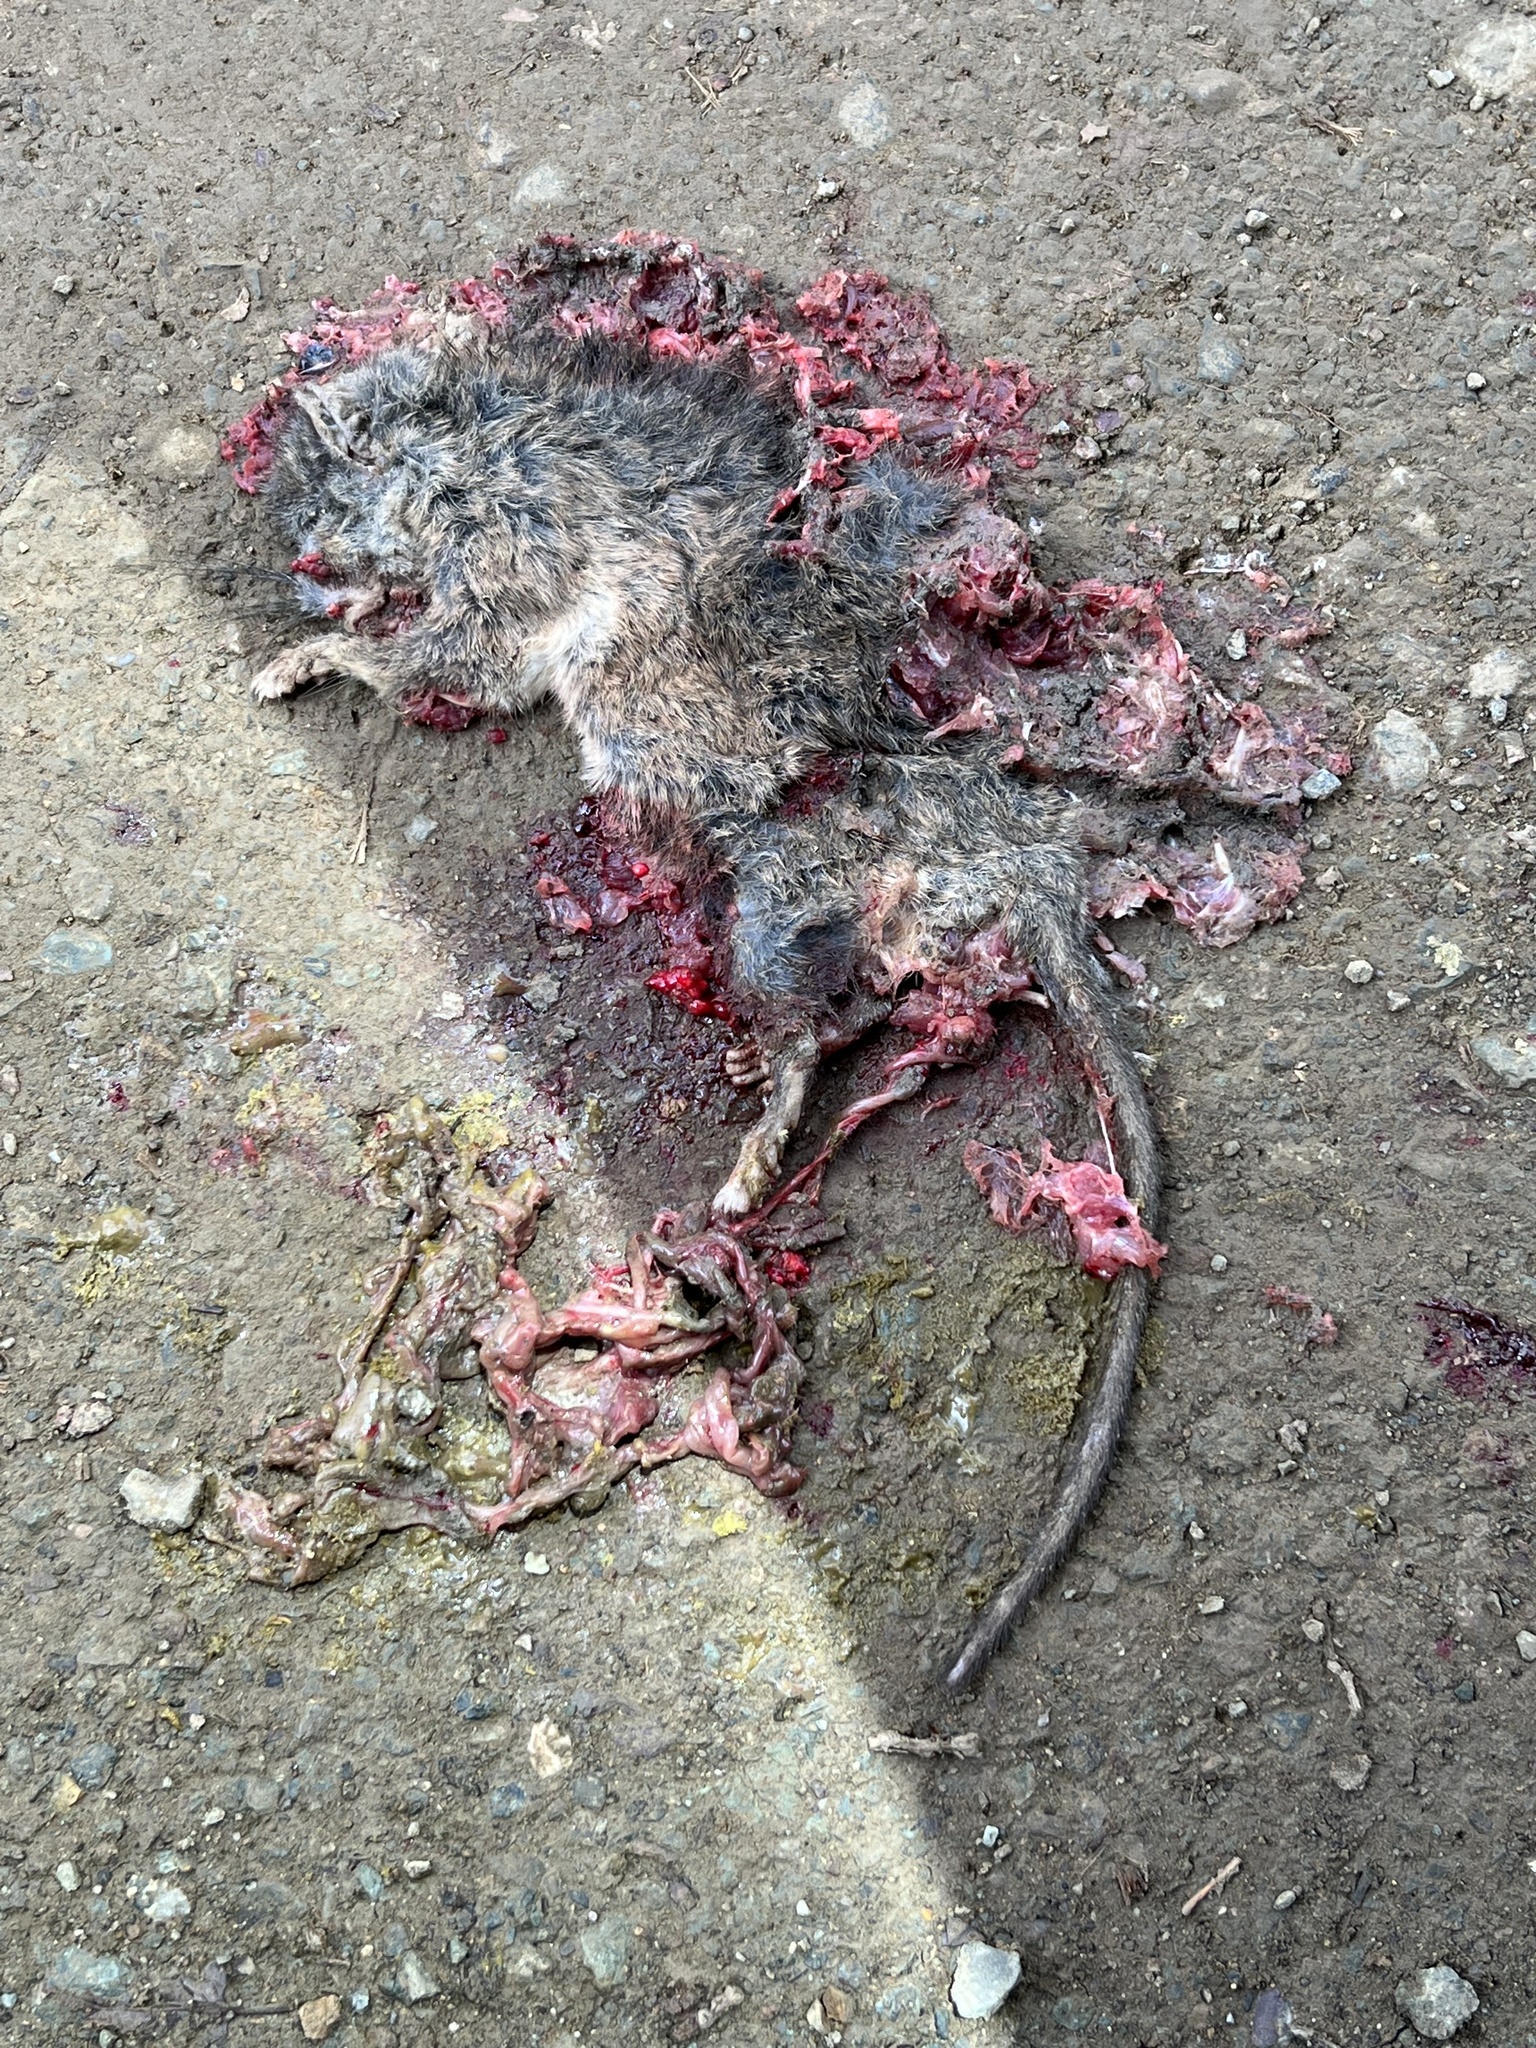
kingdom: Animalia
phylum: Chordata
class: Mammalia
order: Rodentia
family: Cricetidae
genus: Neotoma
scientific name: Neotoma fuscipes
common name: Dusky-footed woodrat
